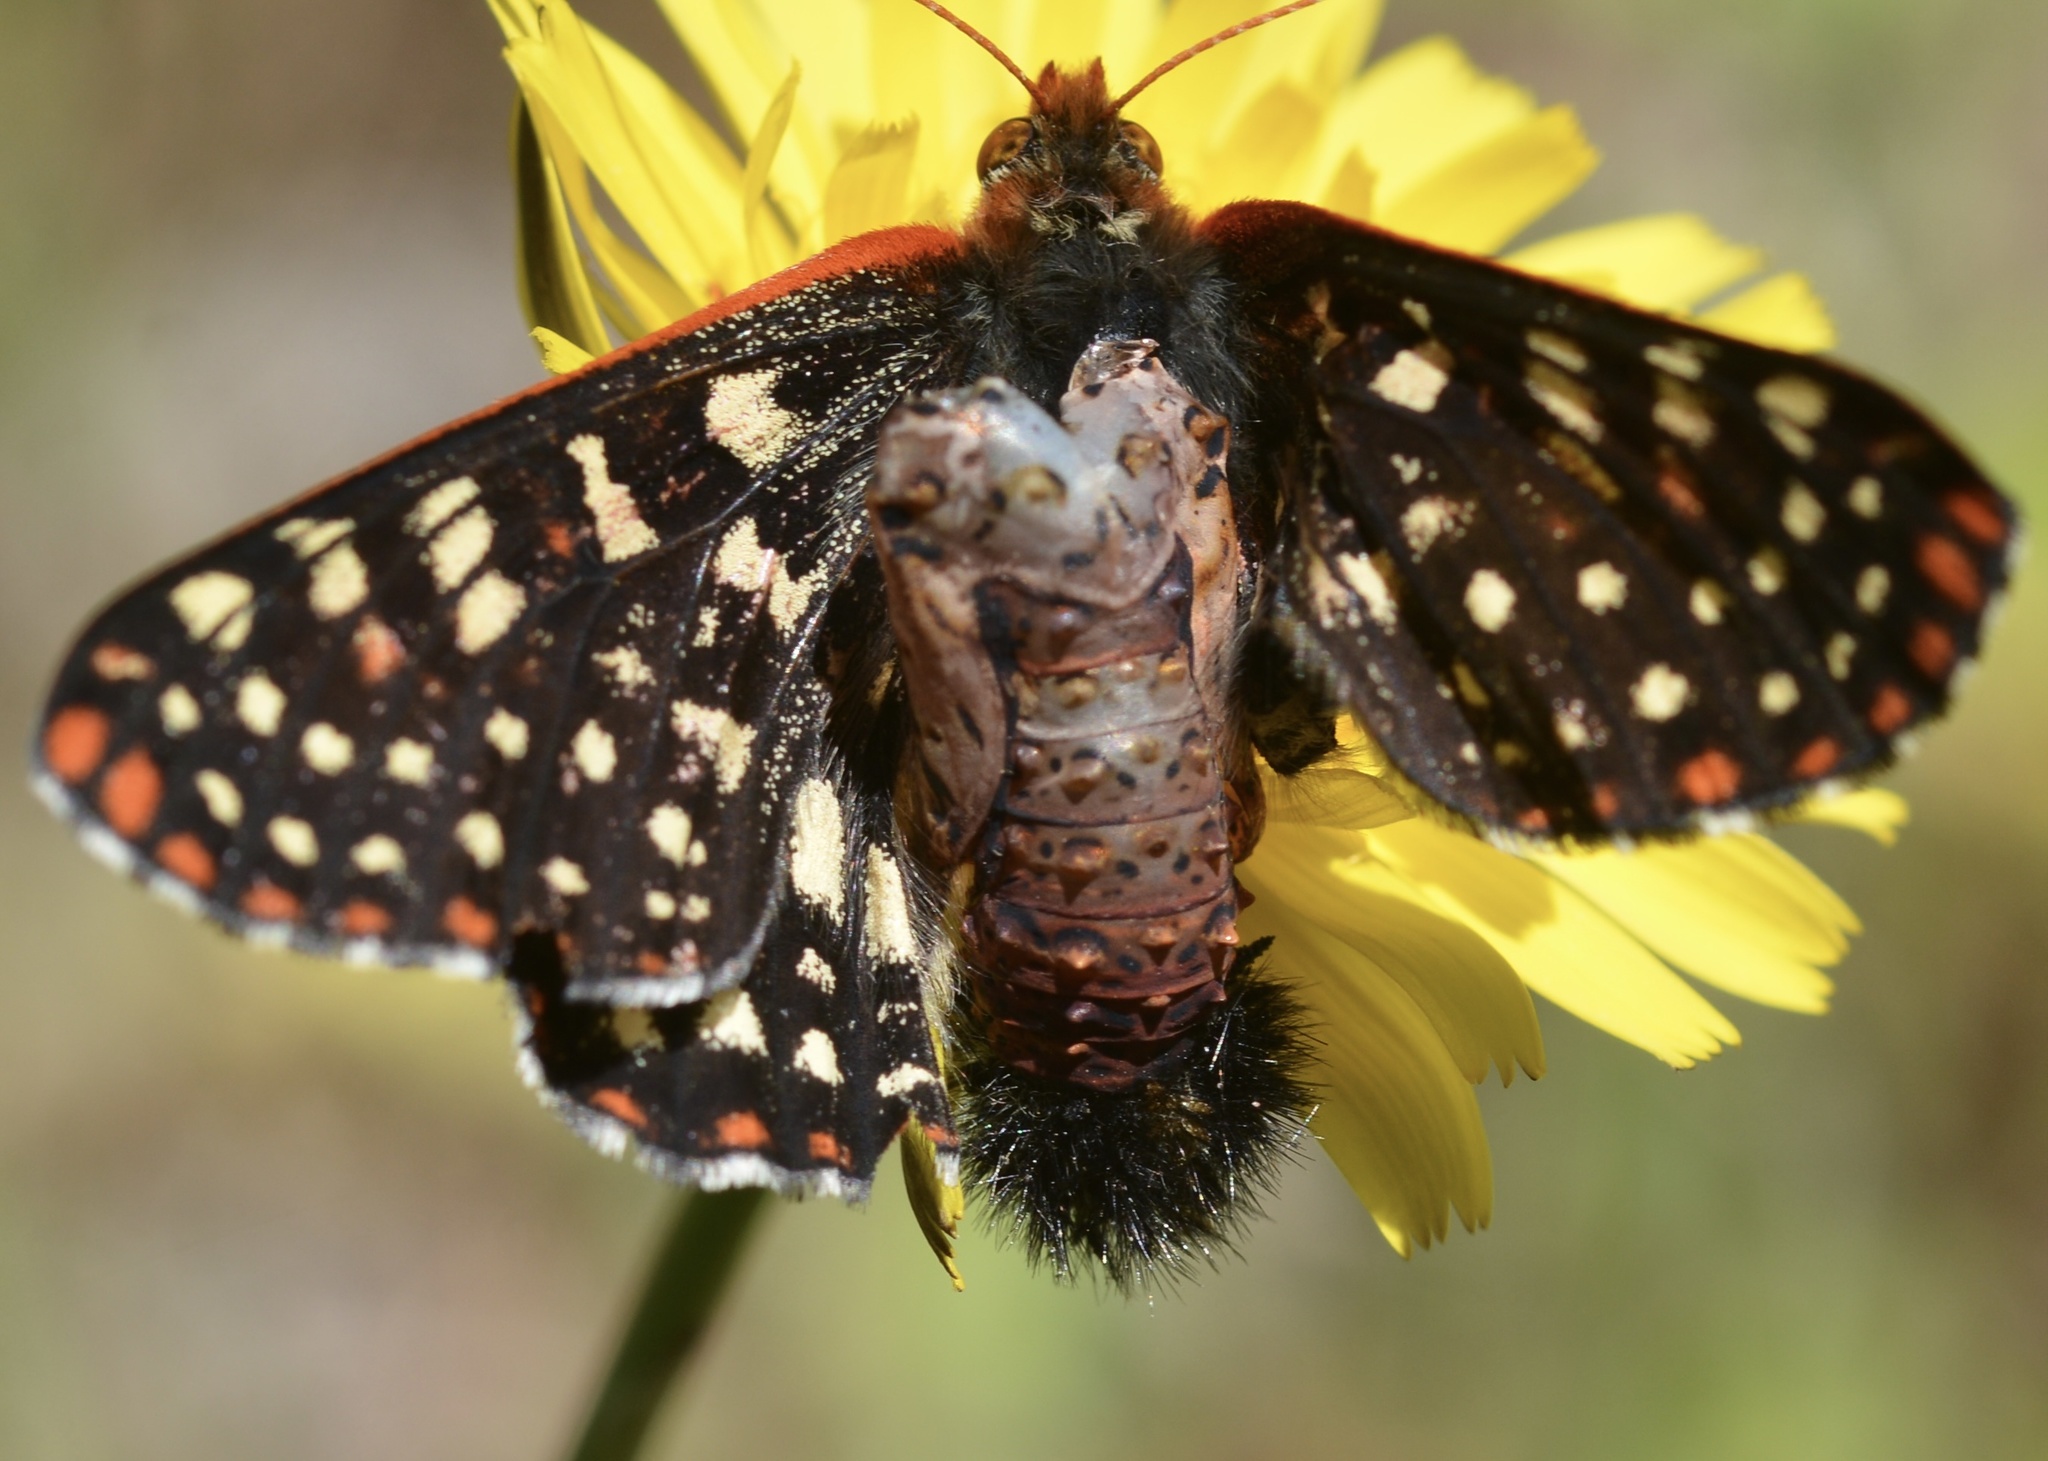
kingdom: Animalia
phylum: Arthropoda
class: Insecta
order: Lepidoptera
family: Nymphalidae
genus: Occidryas
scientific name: Occidryas chalcedona
